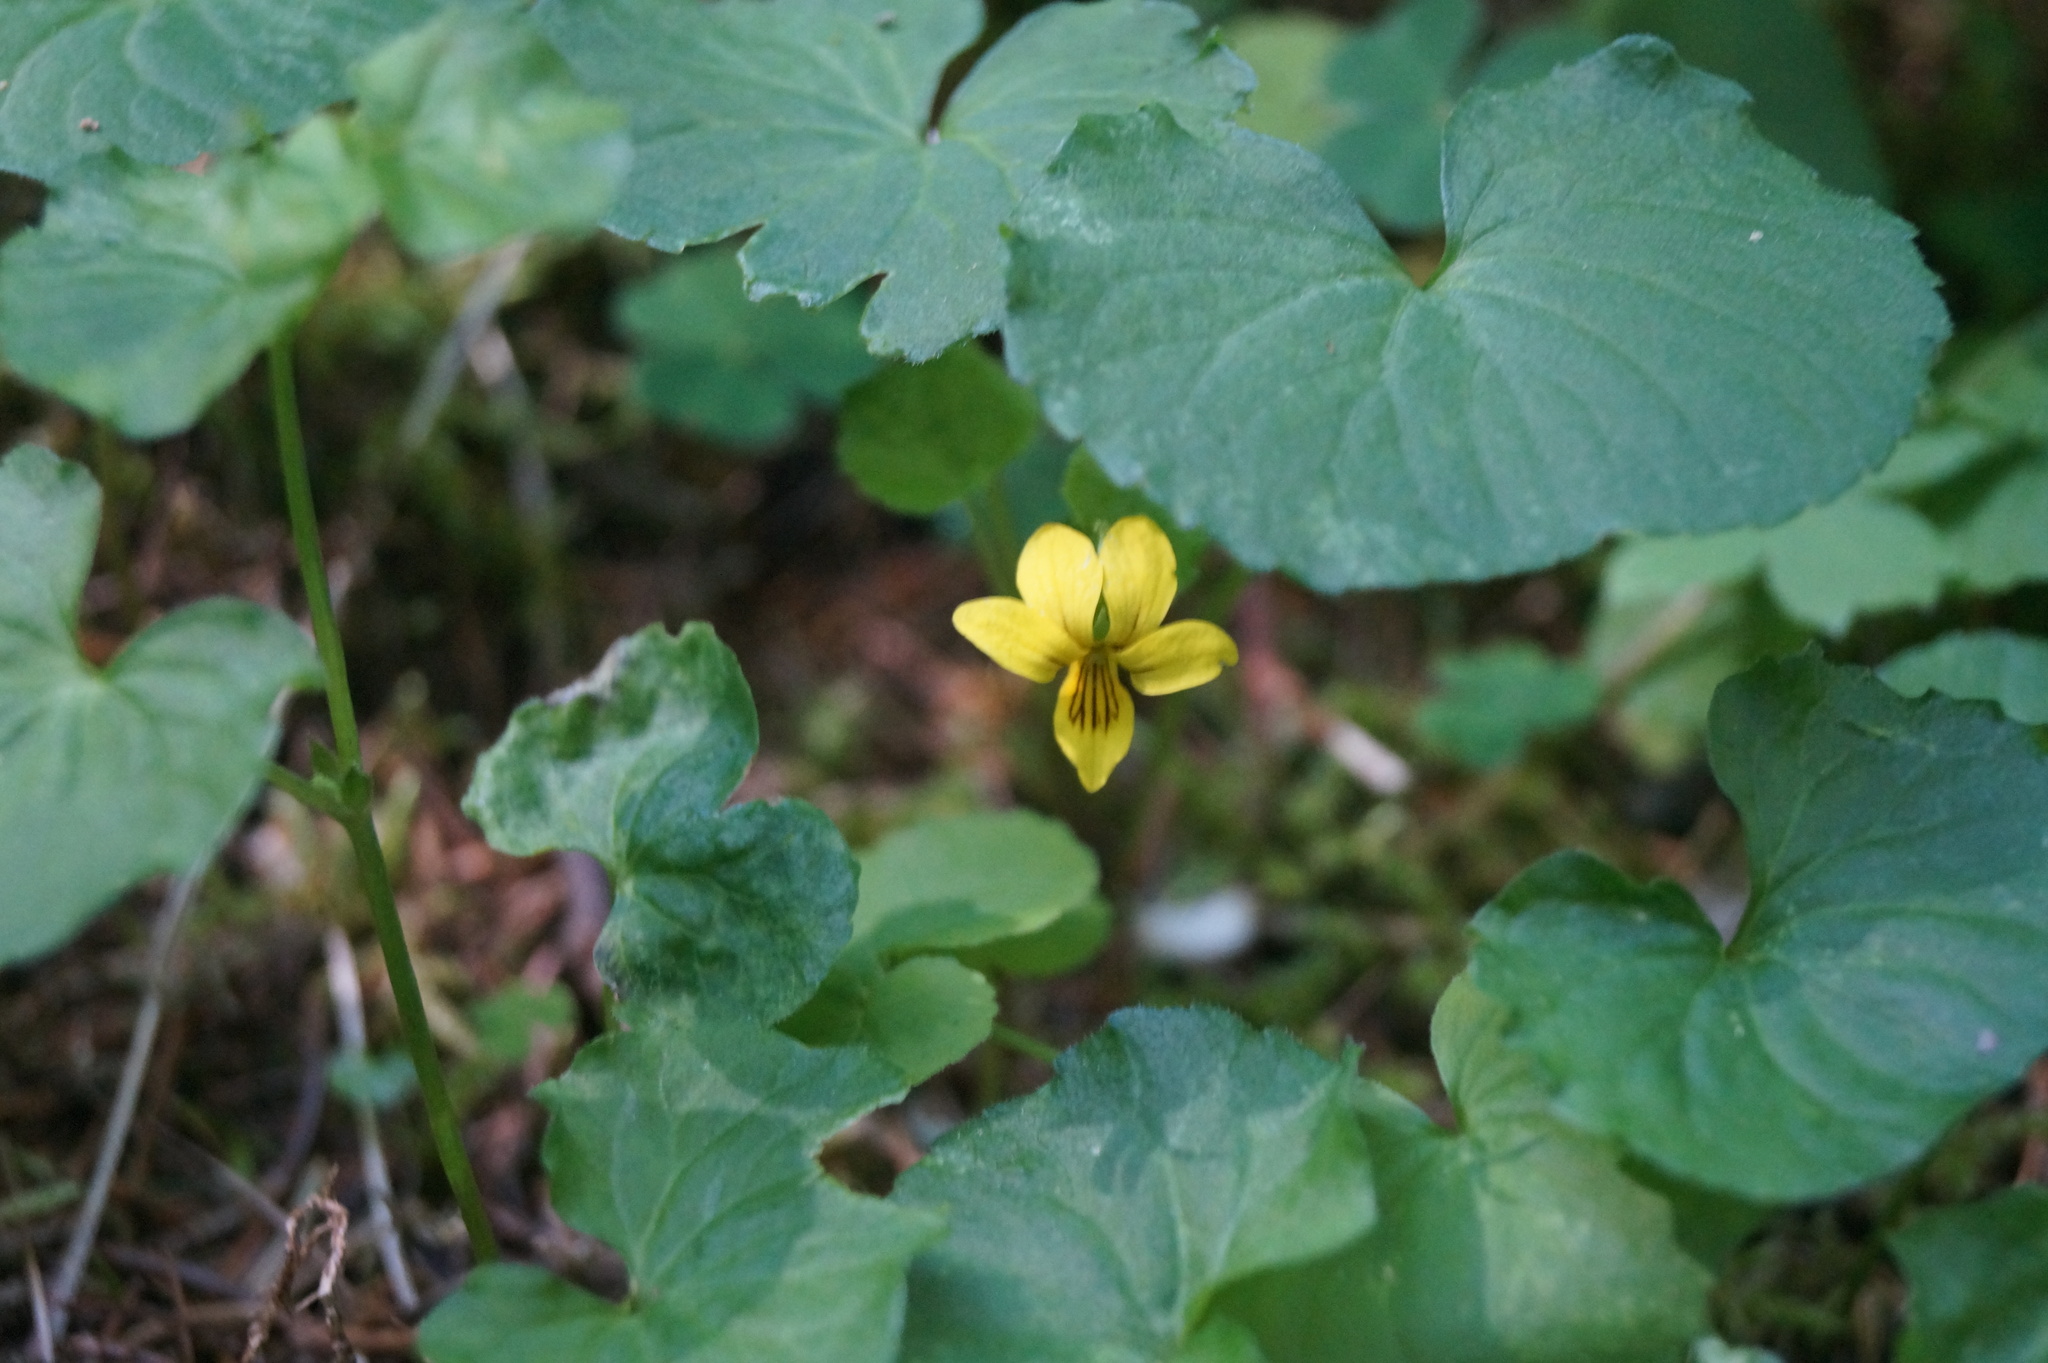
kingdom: Plantae
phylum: Tracheophyta
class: Magnoliopsida
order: Malpighiales
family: Violaceae
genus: Viola
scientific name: Viola biflora
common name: Alpine yellow violet
